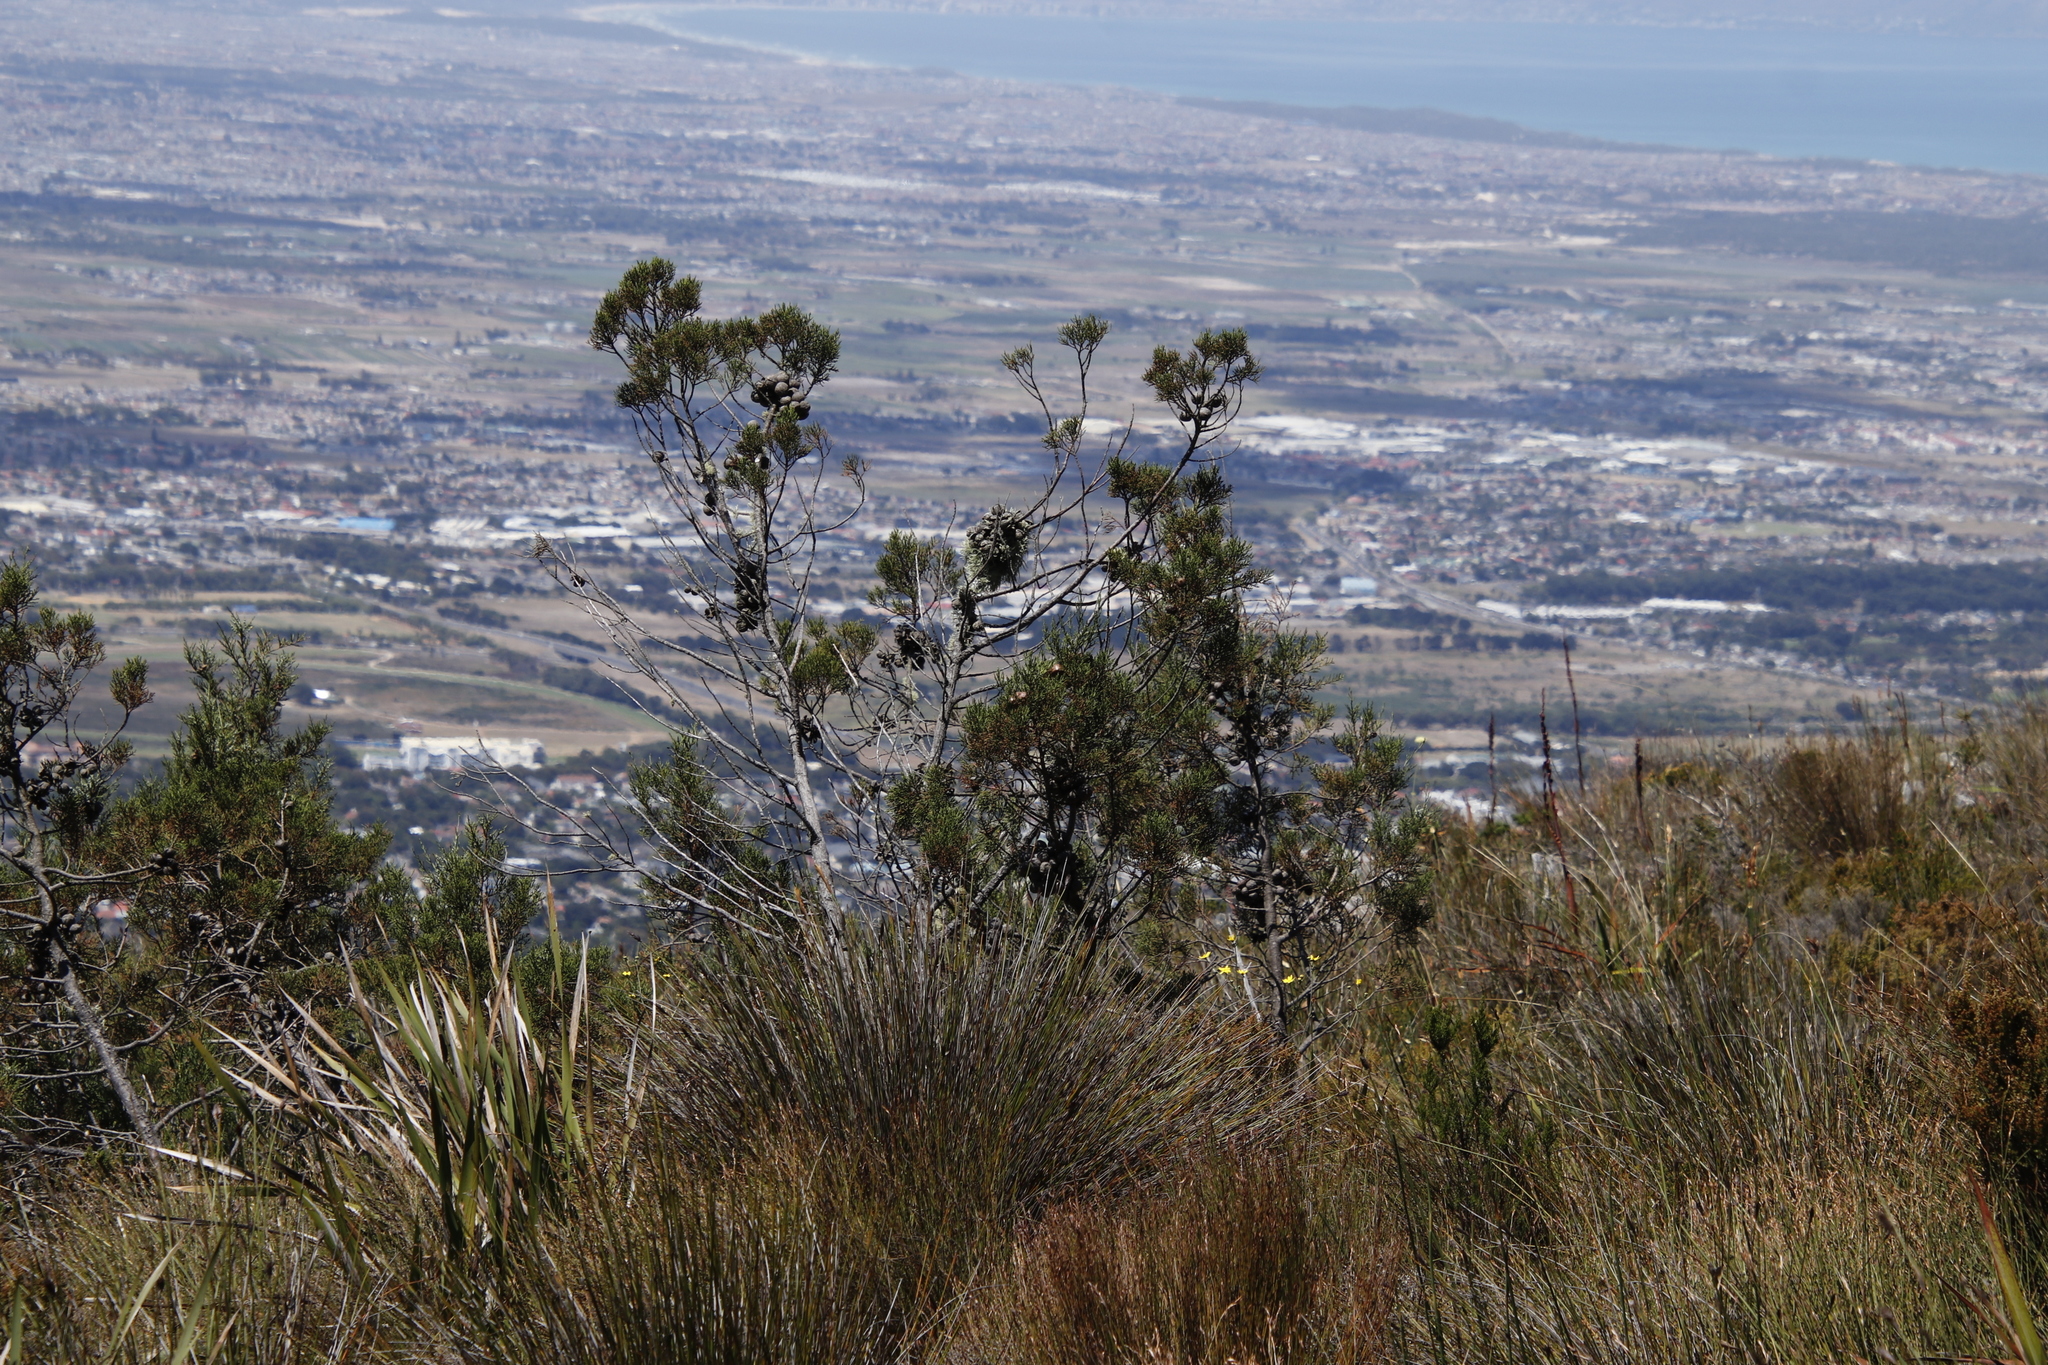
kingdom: Plantae
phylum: Tracheophyta
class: Pinopsida
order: Pinales
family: Cupressaceae
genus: Widdringtonia
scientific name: Widdringtonia nodiflora
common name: Cape cypress
